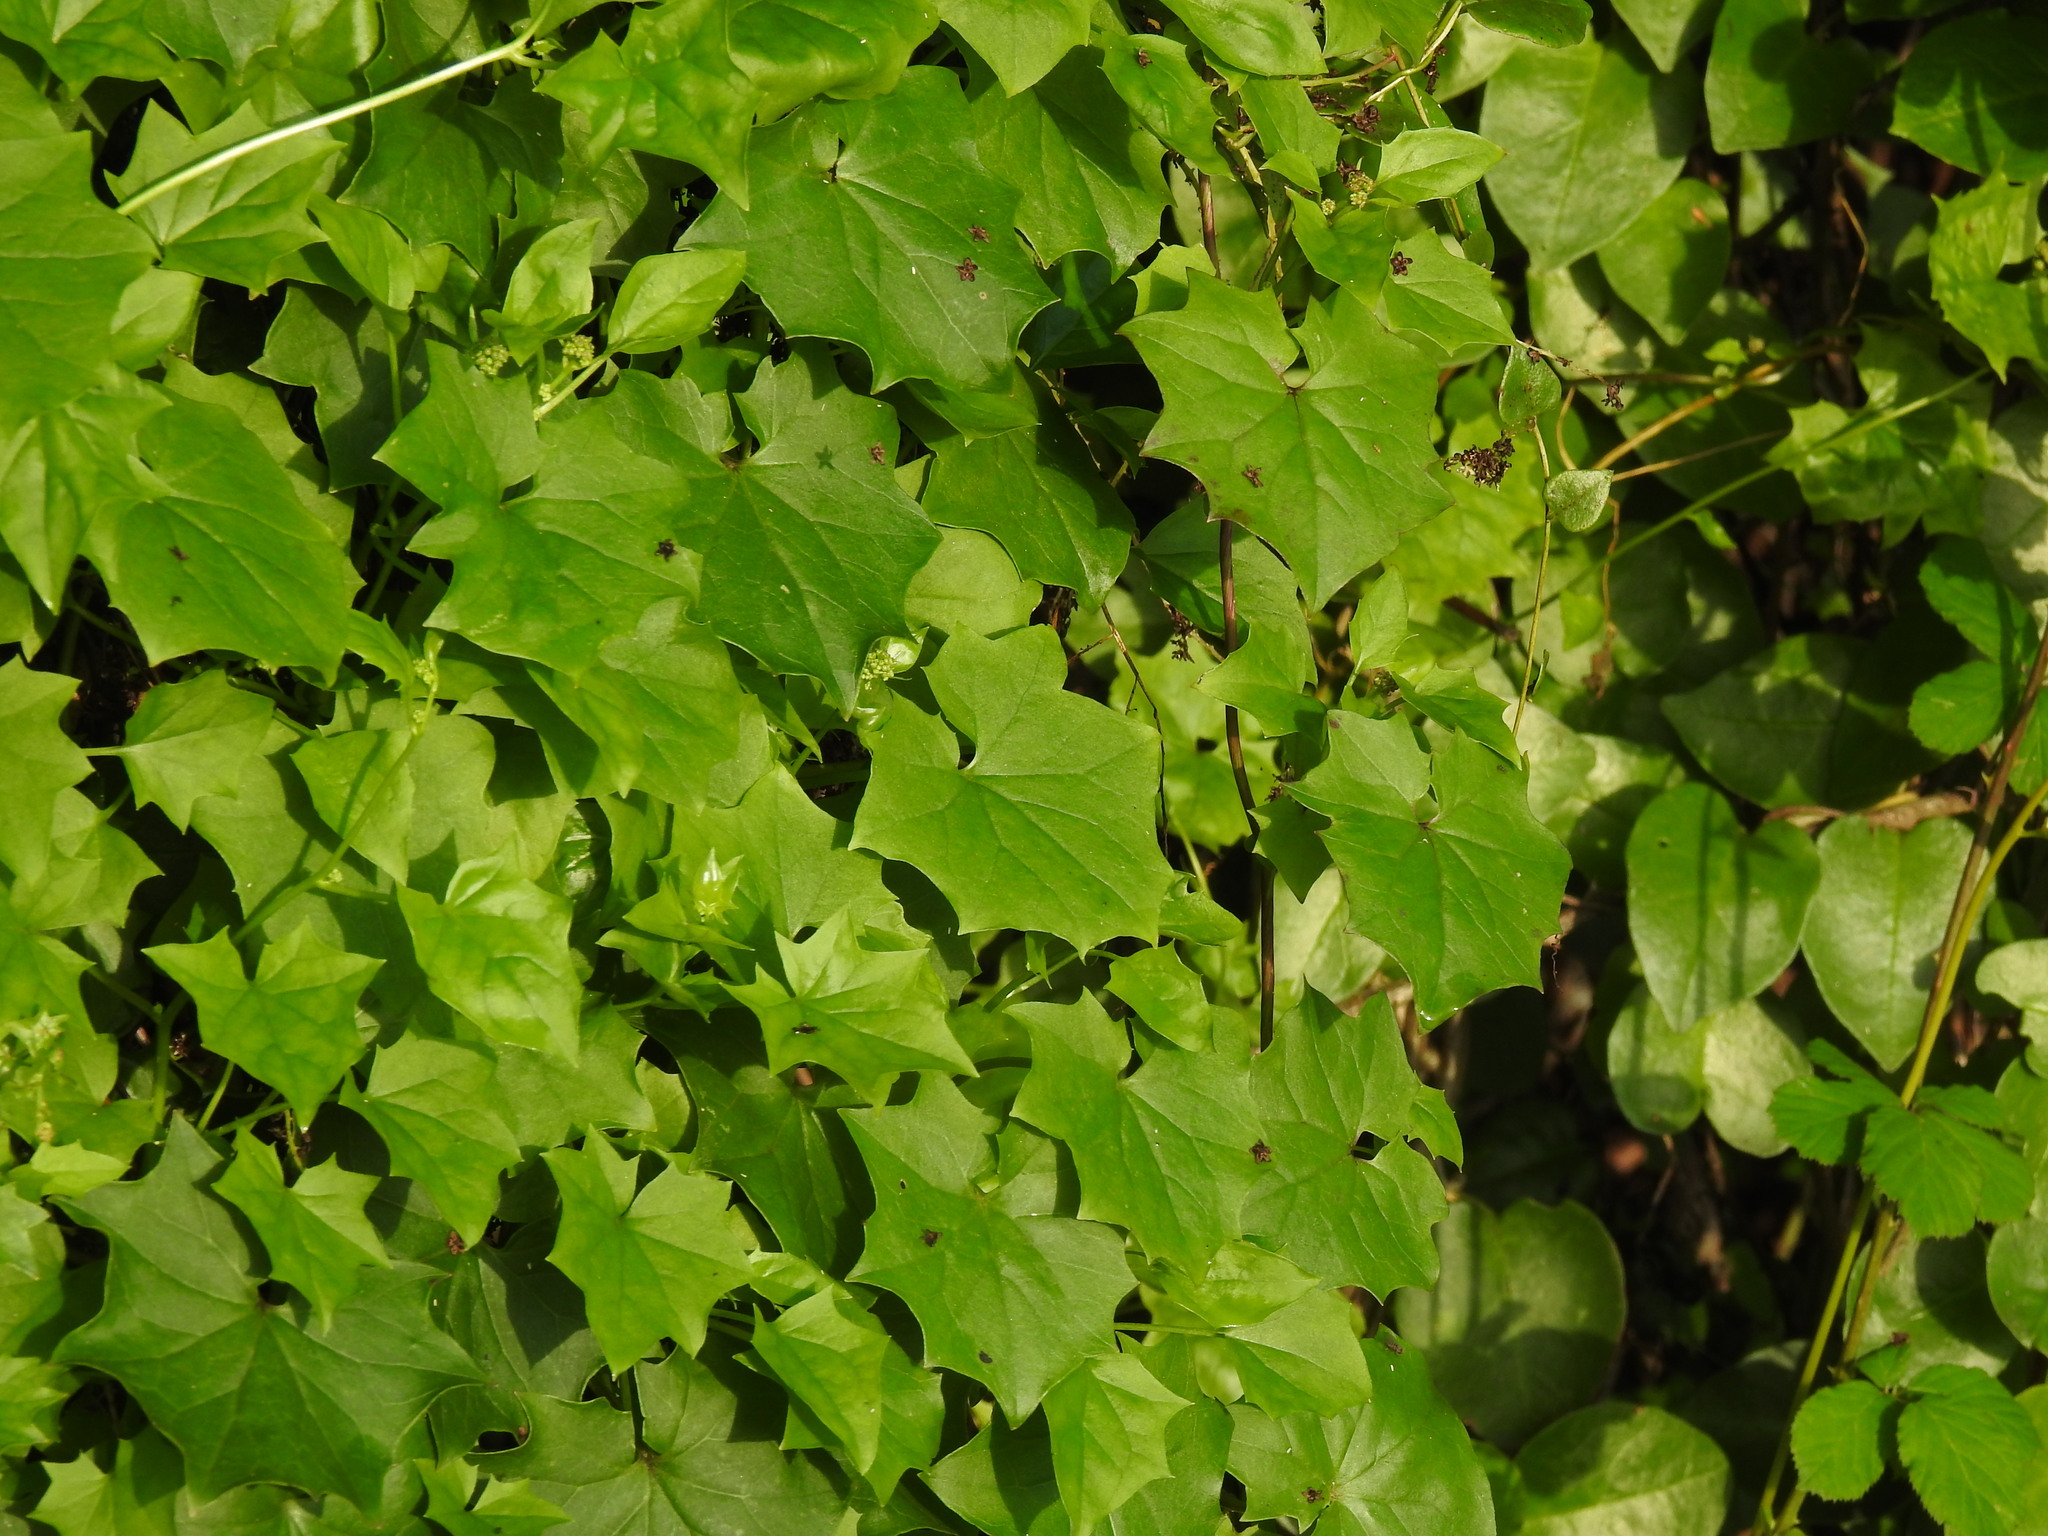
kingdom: Plantae
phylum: Tracheophyta
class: Magnoliopsida
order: Asterales
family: Asteraceae
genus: Delairea
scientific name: Delairea odorata
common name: Cape-ivy
